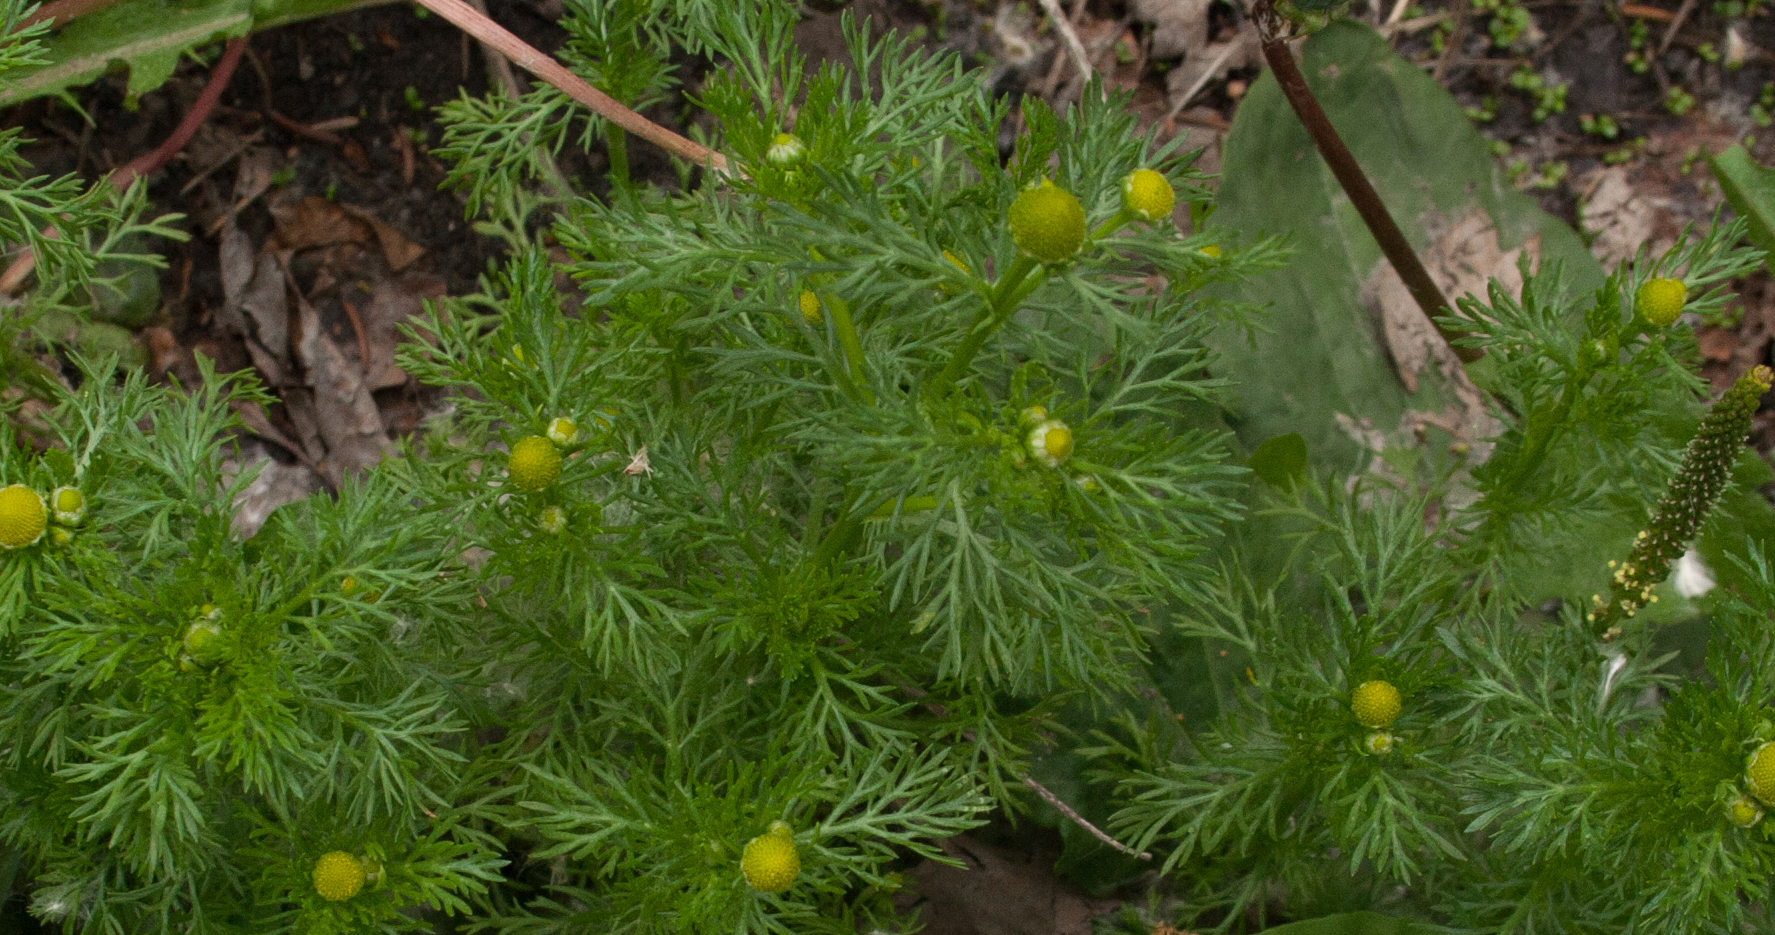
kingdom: Plantae
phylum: Tracheophyta
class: Magnoliopsida
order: Asterales
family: Asteraceae
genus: Matricaria
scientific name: Matricaria discoidea
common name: Disc mayweed
